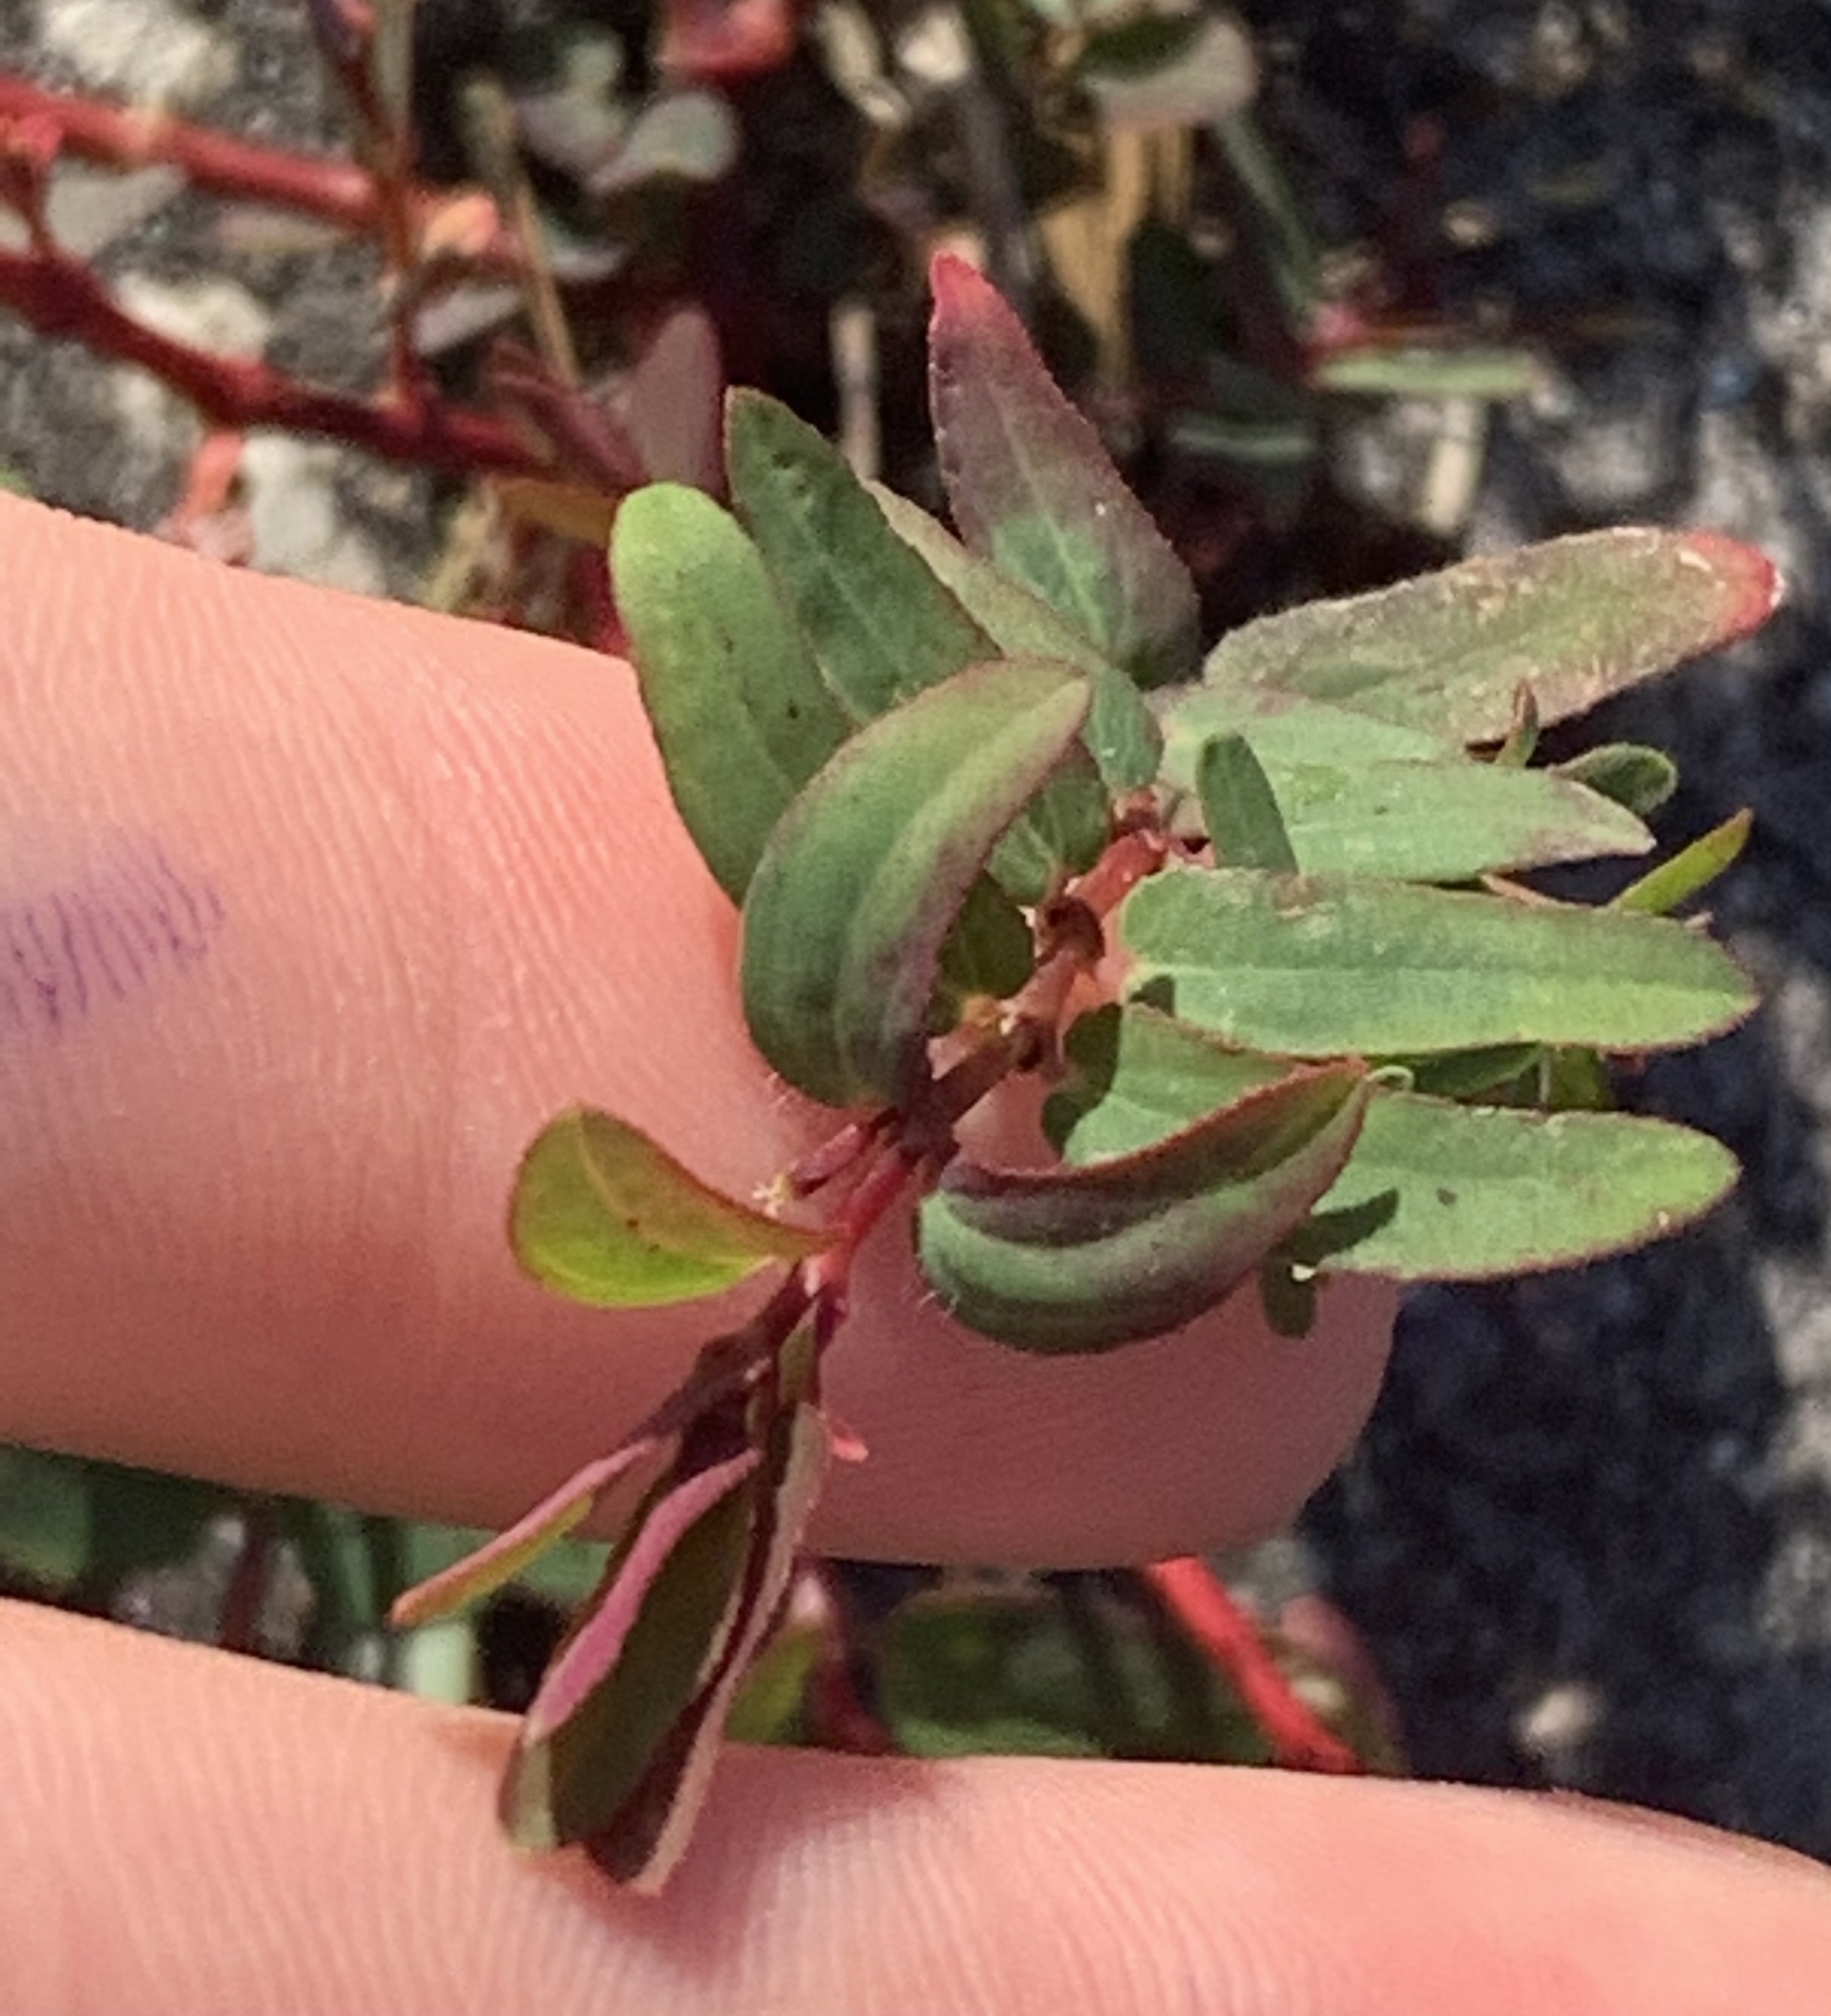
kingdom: Plantae
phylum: Tracheophyta
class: Magnoliopsida
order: Malpighiales
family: Euphorbiaceae
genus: Euphorbia
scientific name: Euphorbia hyssopifolia
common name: Hyssopleaf sandmat
